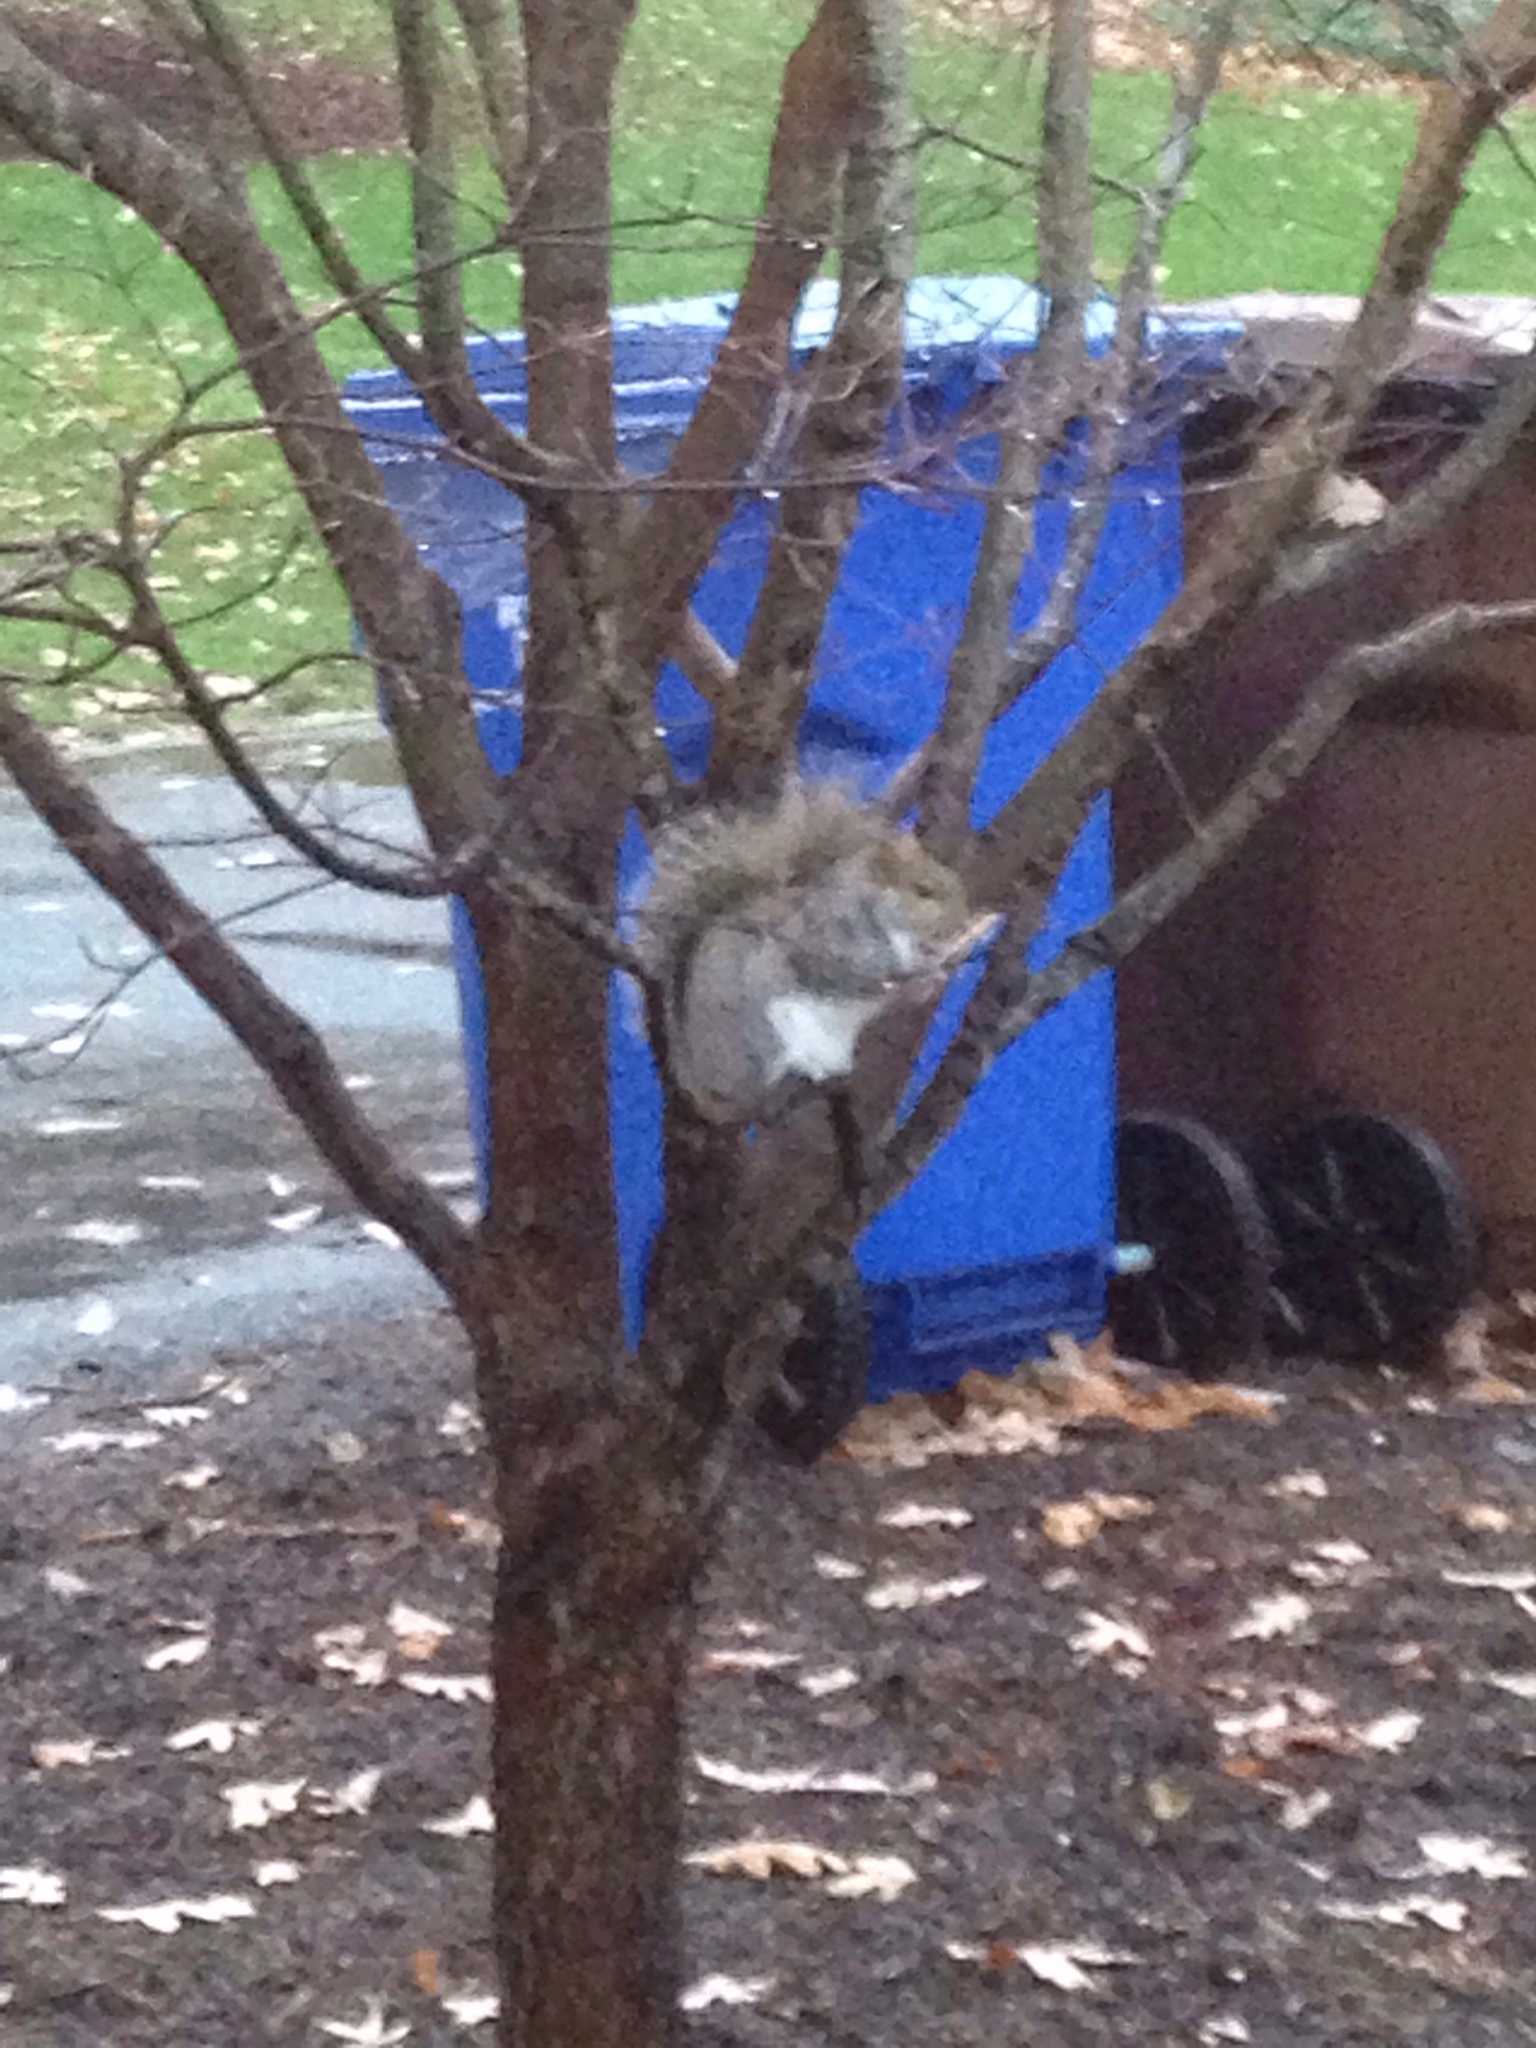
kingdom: Animalia
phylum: Chordata
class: Mammalia
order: Rodentia
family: Sciuridae
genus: Sciurus
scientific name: Sciurus carolinensis
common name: Eastern gray squirrel
